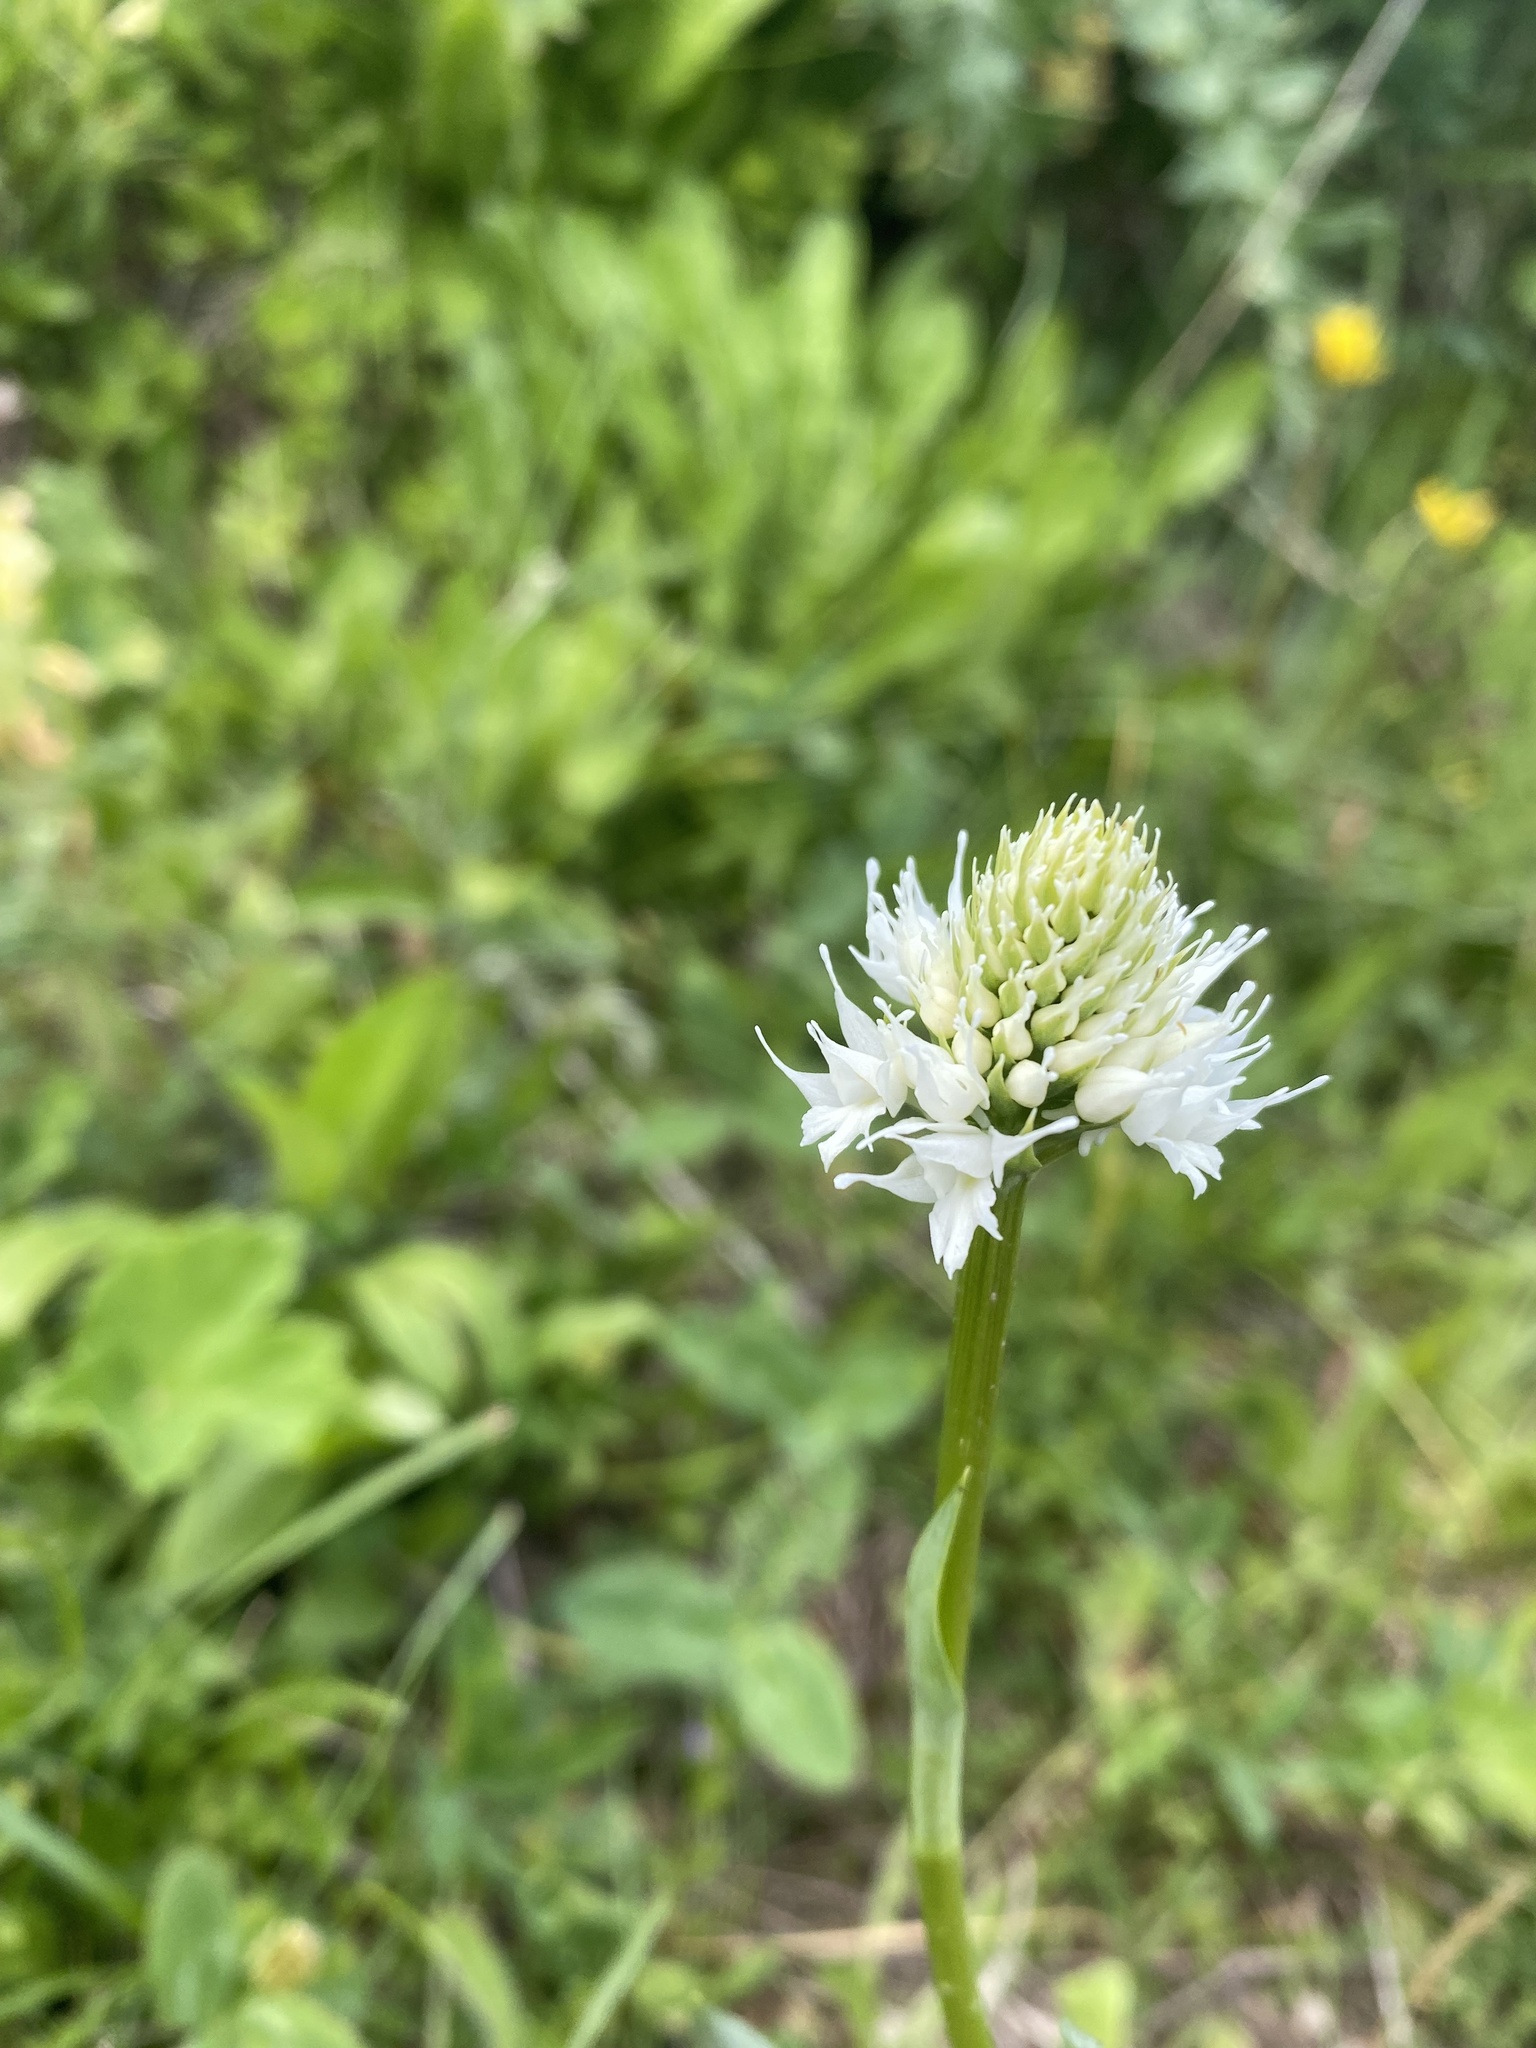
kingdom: Plantae
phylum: Tracheophyta
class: Liliopsida
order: Asparagales
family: Orchidaceae
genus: Traunsteinera
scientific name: Traunsteinera sphaerica
